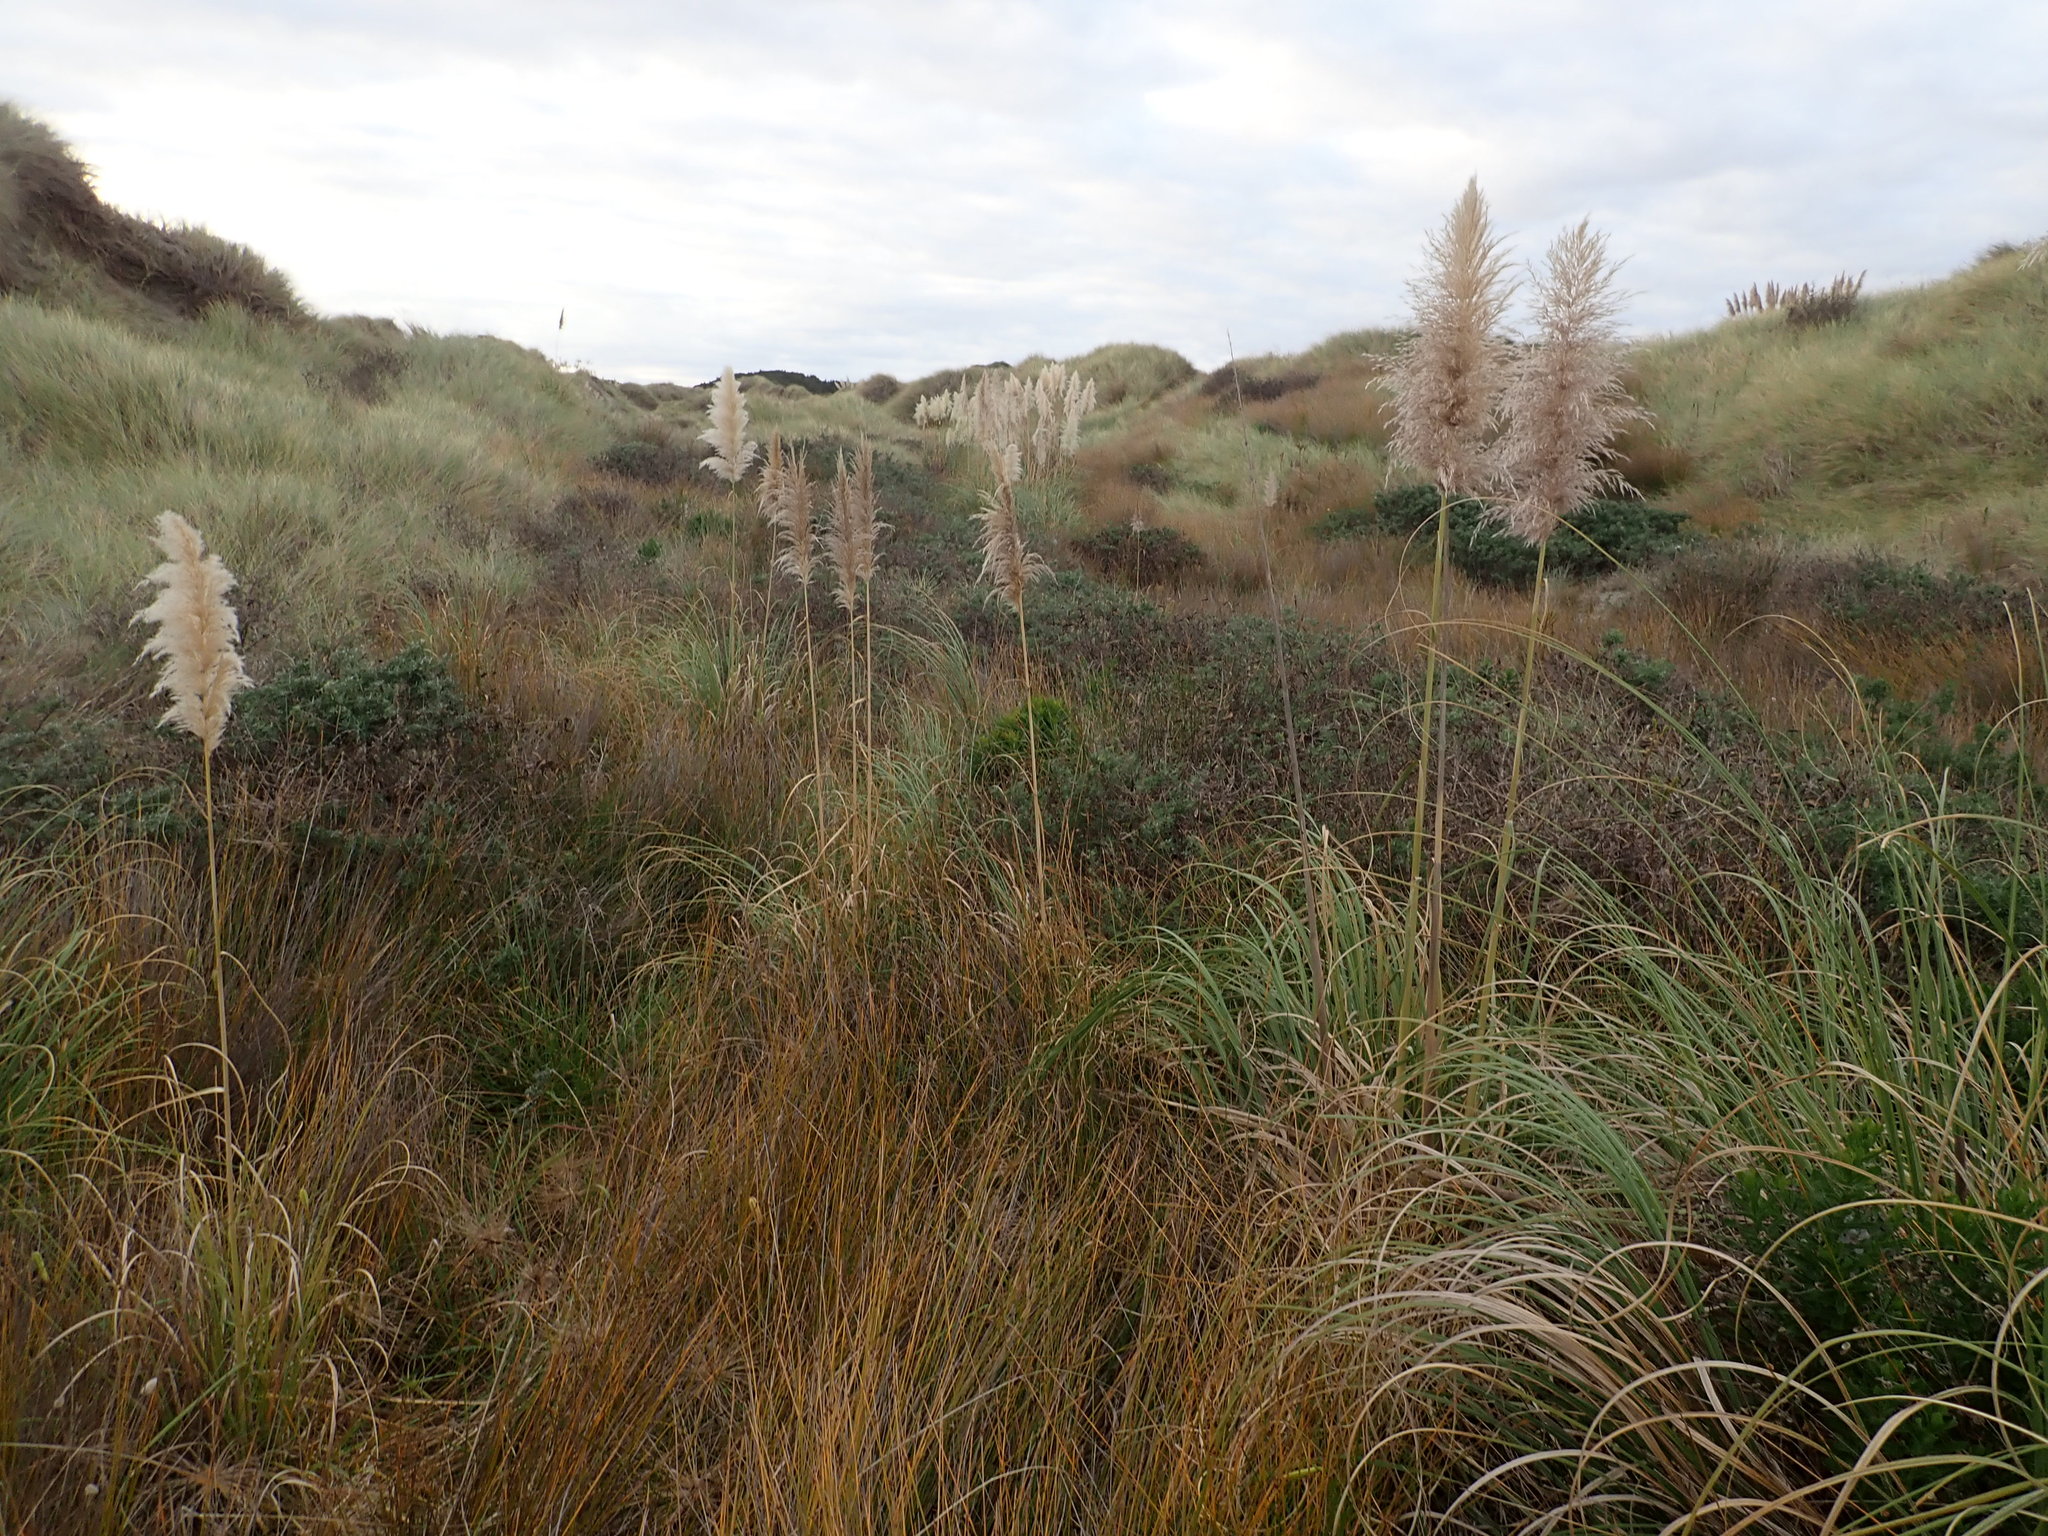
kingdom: Plantae
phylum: Tracheophyta
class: Magnoliopsida
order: Fabales
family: Fabaceae
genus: Lupinus
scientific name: Lupinus arboreus
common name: Yellow bush lupine
